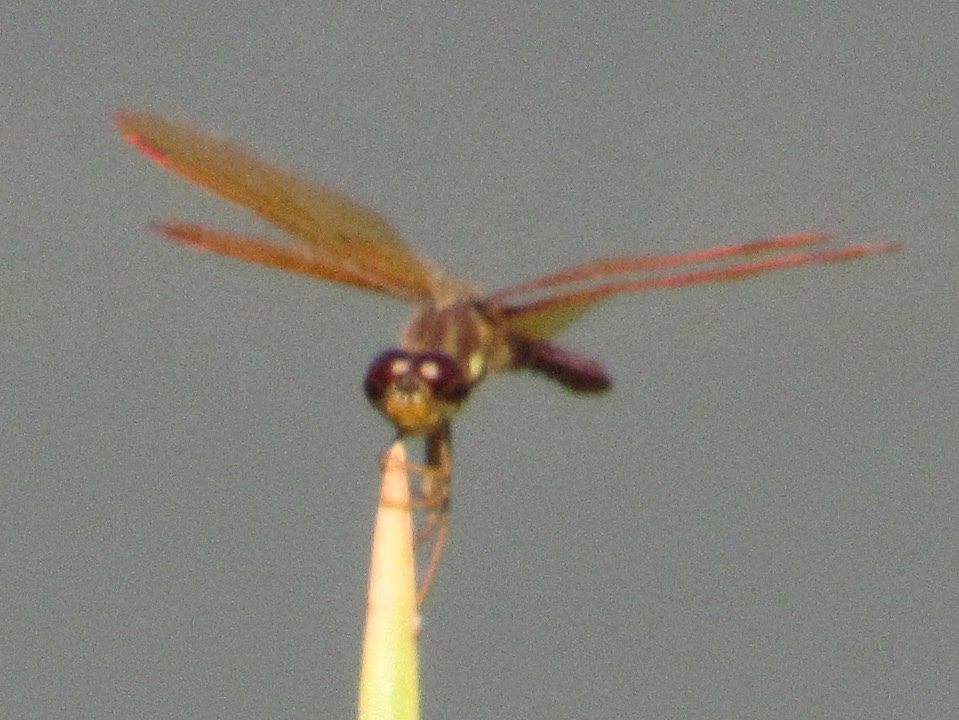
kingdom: Animalia
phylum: Arthropoda
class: Insecta
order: Odonata
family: Libellulidae
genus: Perithemis
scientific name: Perithemis tenera
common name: Eastern amberwing
